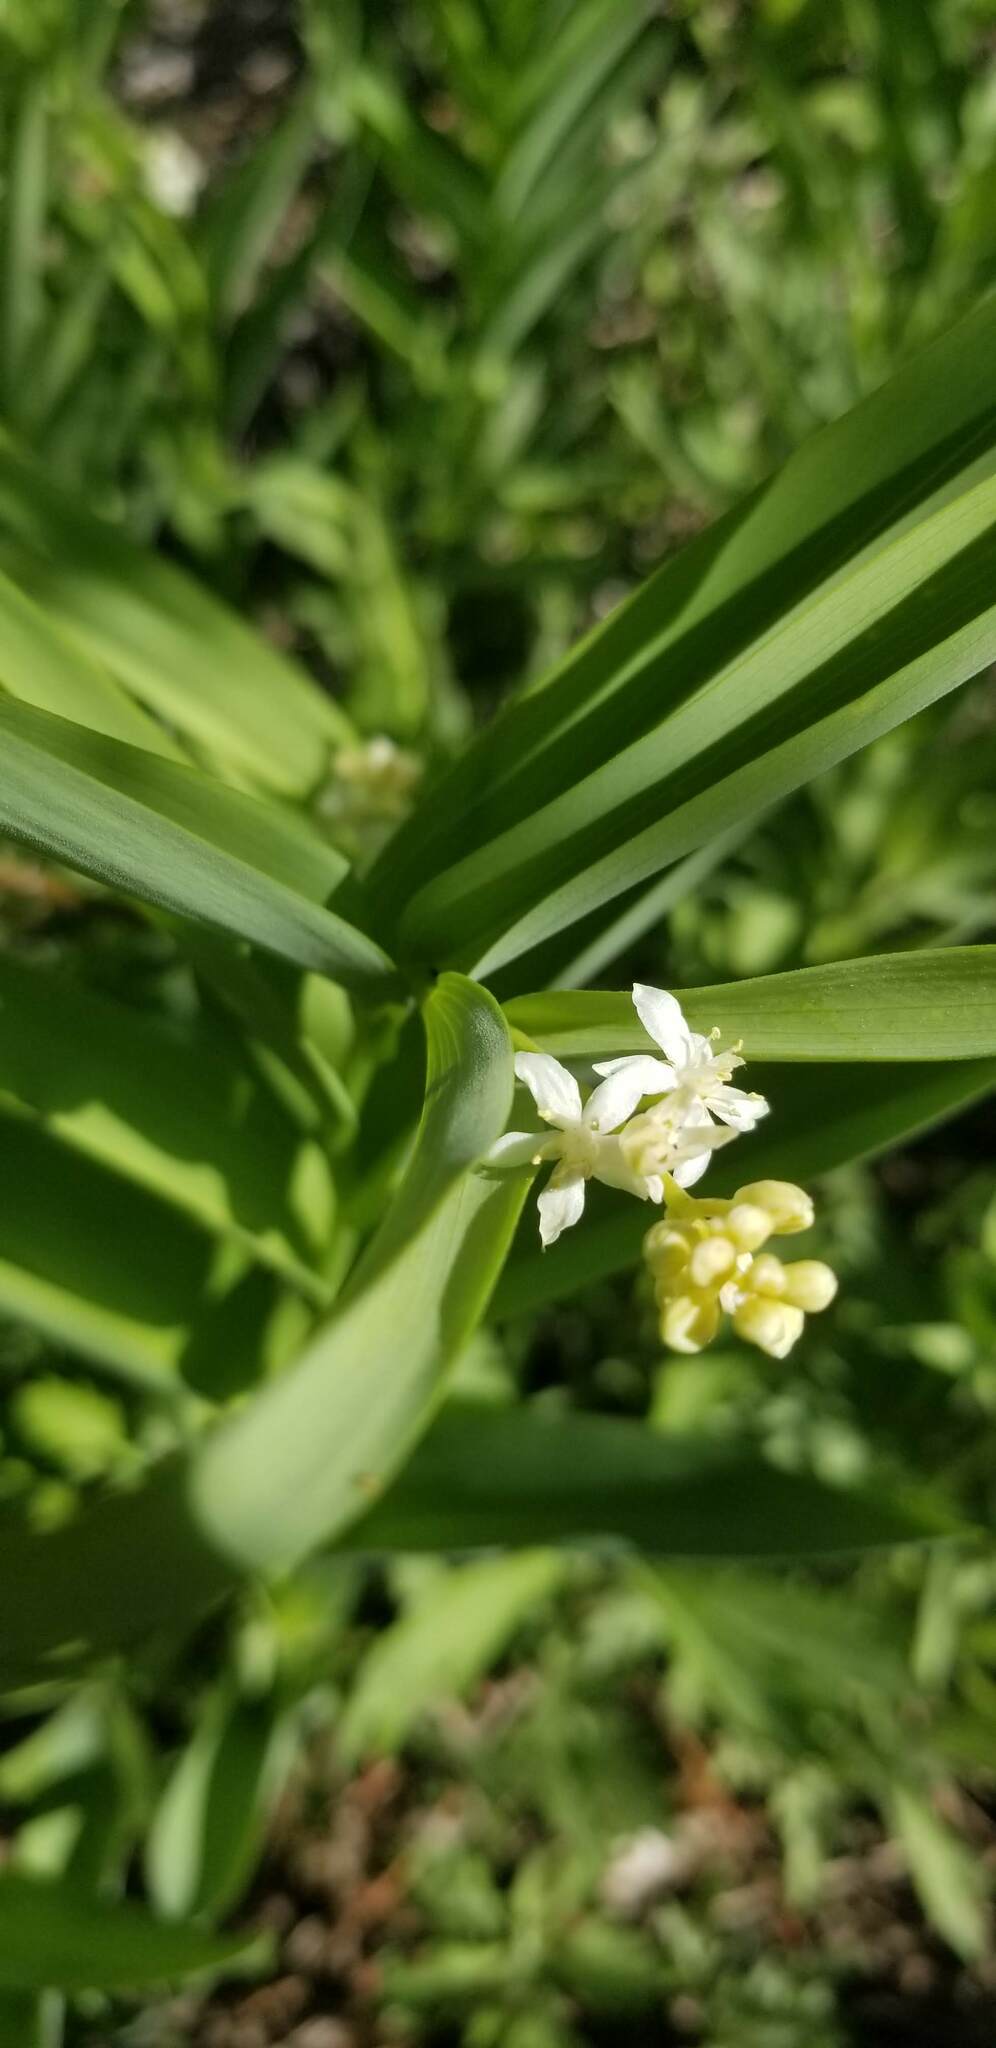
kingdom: Plantae
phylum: Tracheophyta
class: Liliopsida
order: Asparagales
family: Asparagaceae
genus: Maianthemum
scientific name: Maianthemum stellatum
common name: Little false solomon's seal
